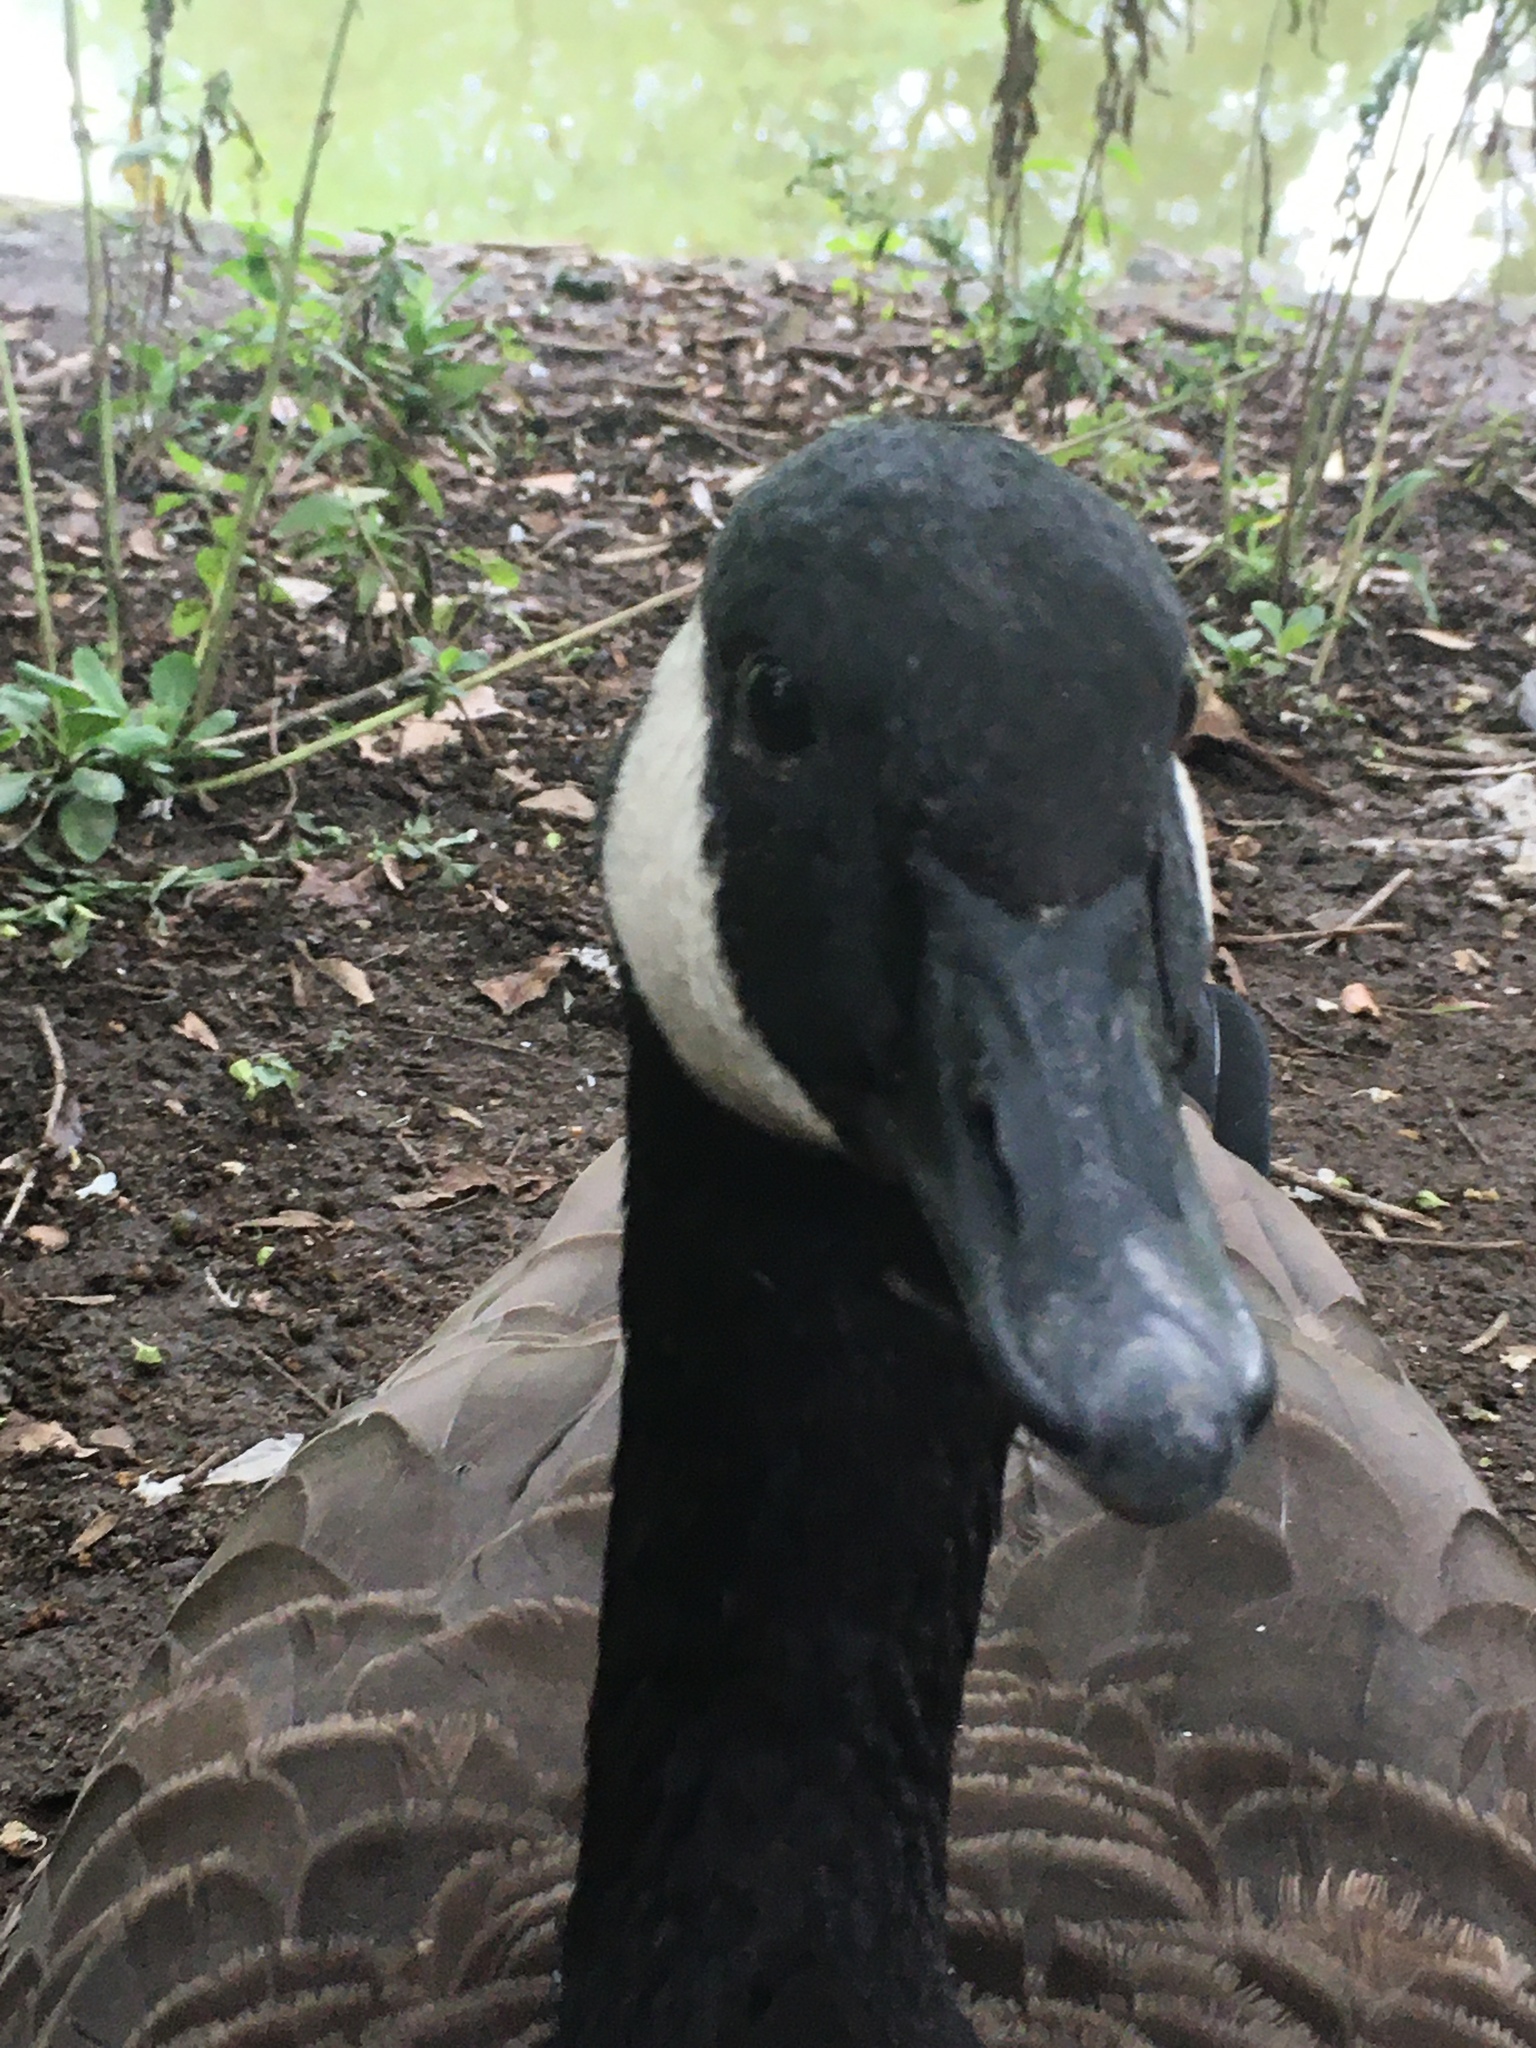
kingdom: Animalia
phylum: Chordata
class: Aves
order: Anseriformes
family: Anatidae
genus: Branta
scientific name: Branta canadensis
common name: Canada goose
